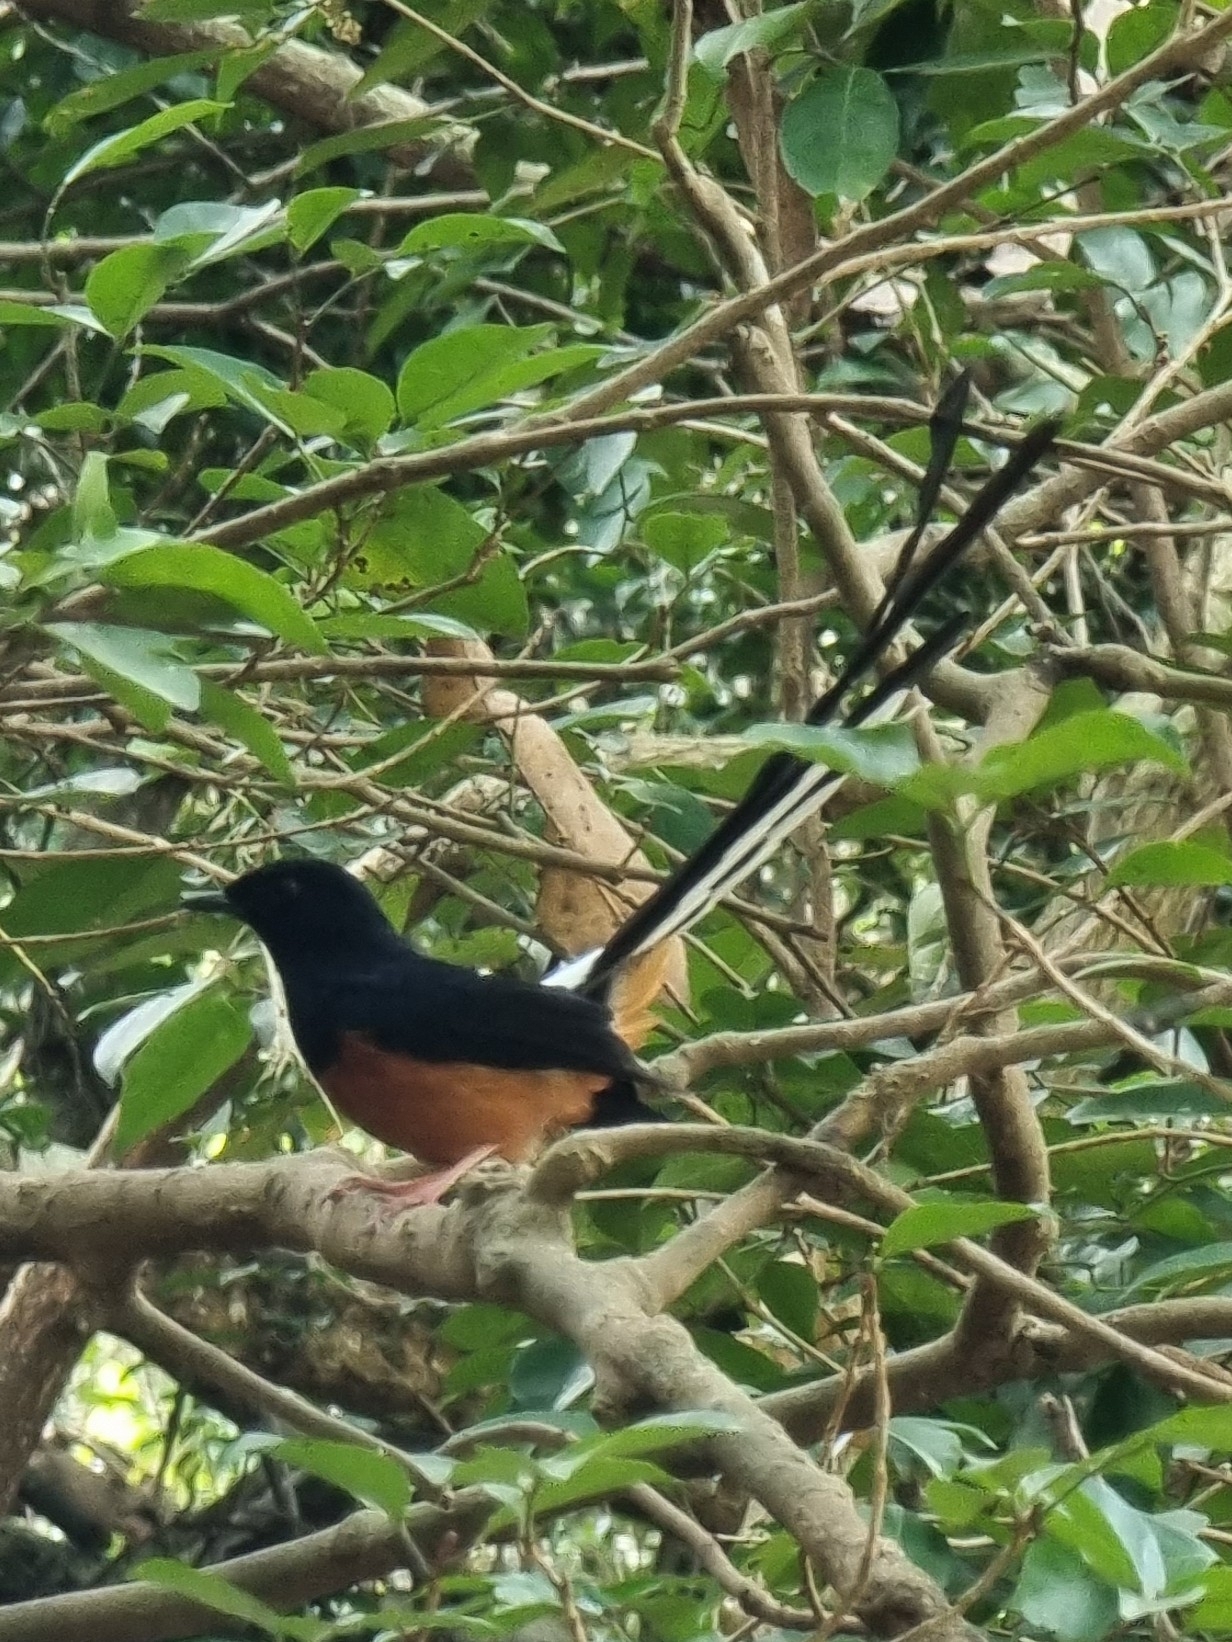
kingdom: Animalia
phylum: Chordata
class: Aves
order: Passeriformes
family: Muscicapidae
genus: Copsychus
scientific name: Copsychus malabaricus
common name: White-rumped shama
